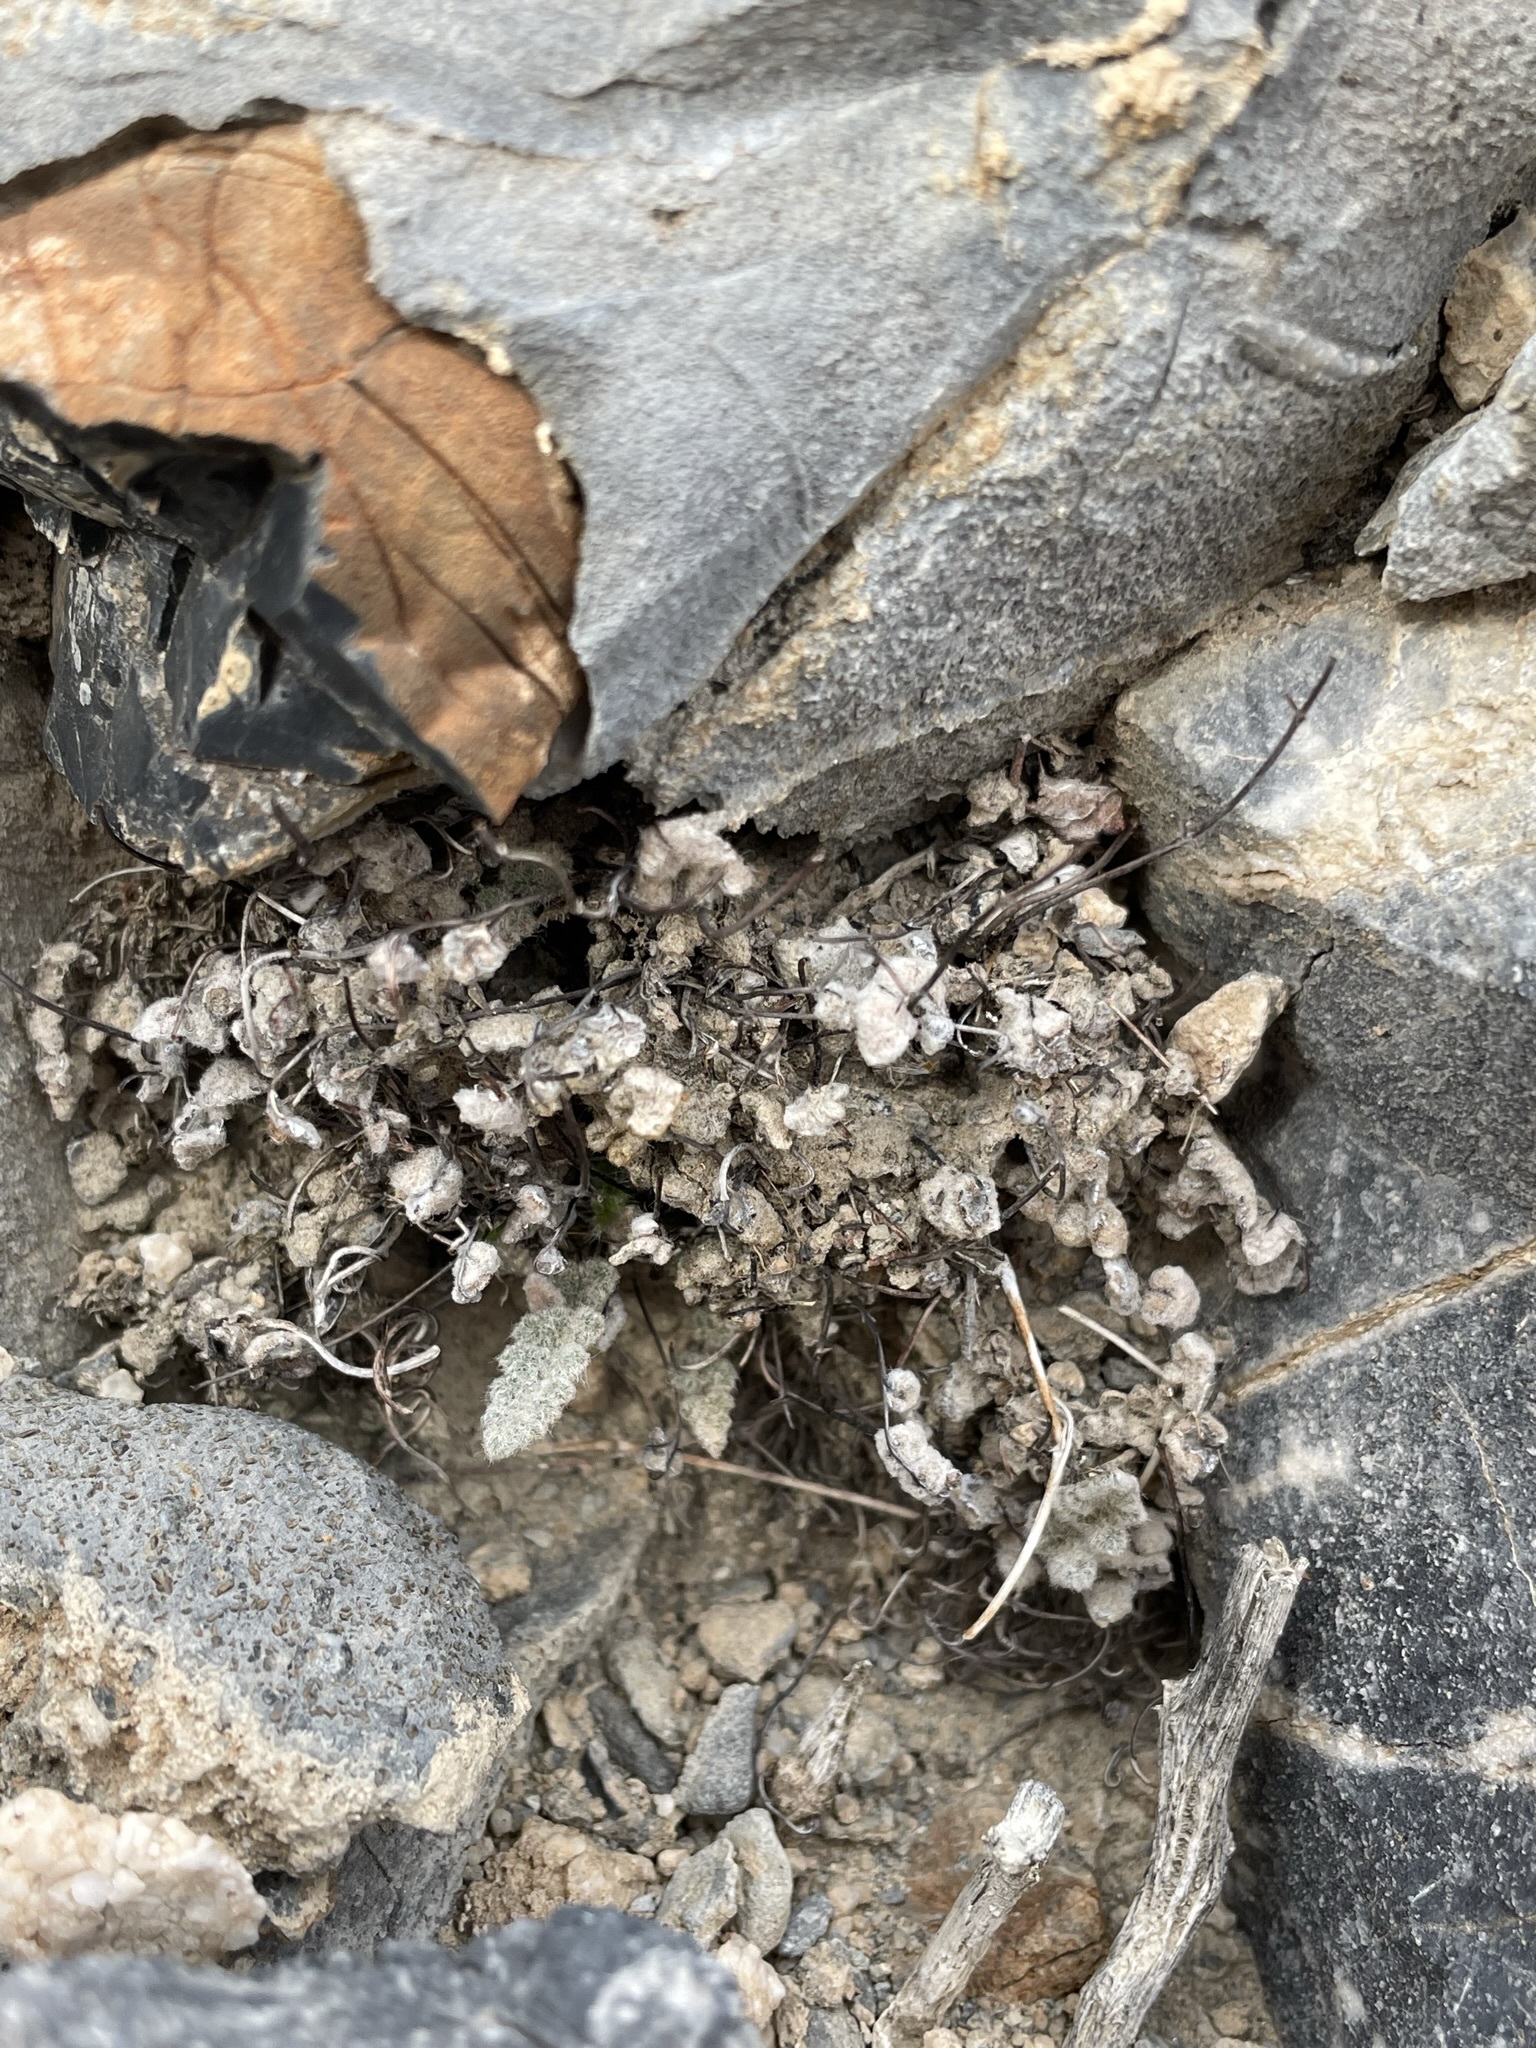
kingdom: Plantae
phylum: Tracheophyta
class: Polypodiopsida
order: Polypodiales
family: Pteridaceae
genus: Myriopteris
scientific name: Myriopteris parryi
